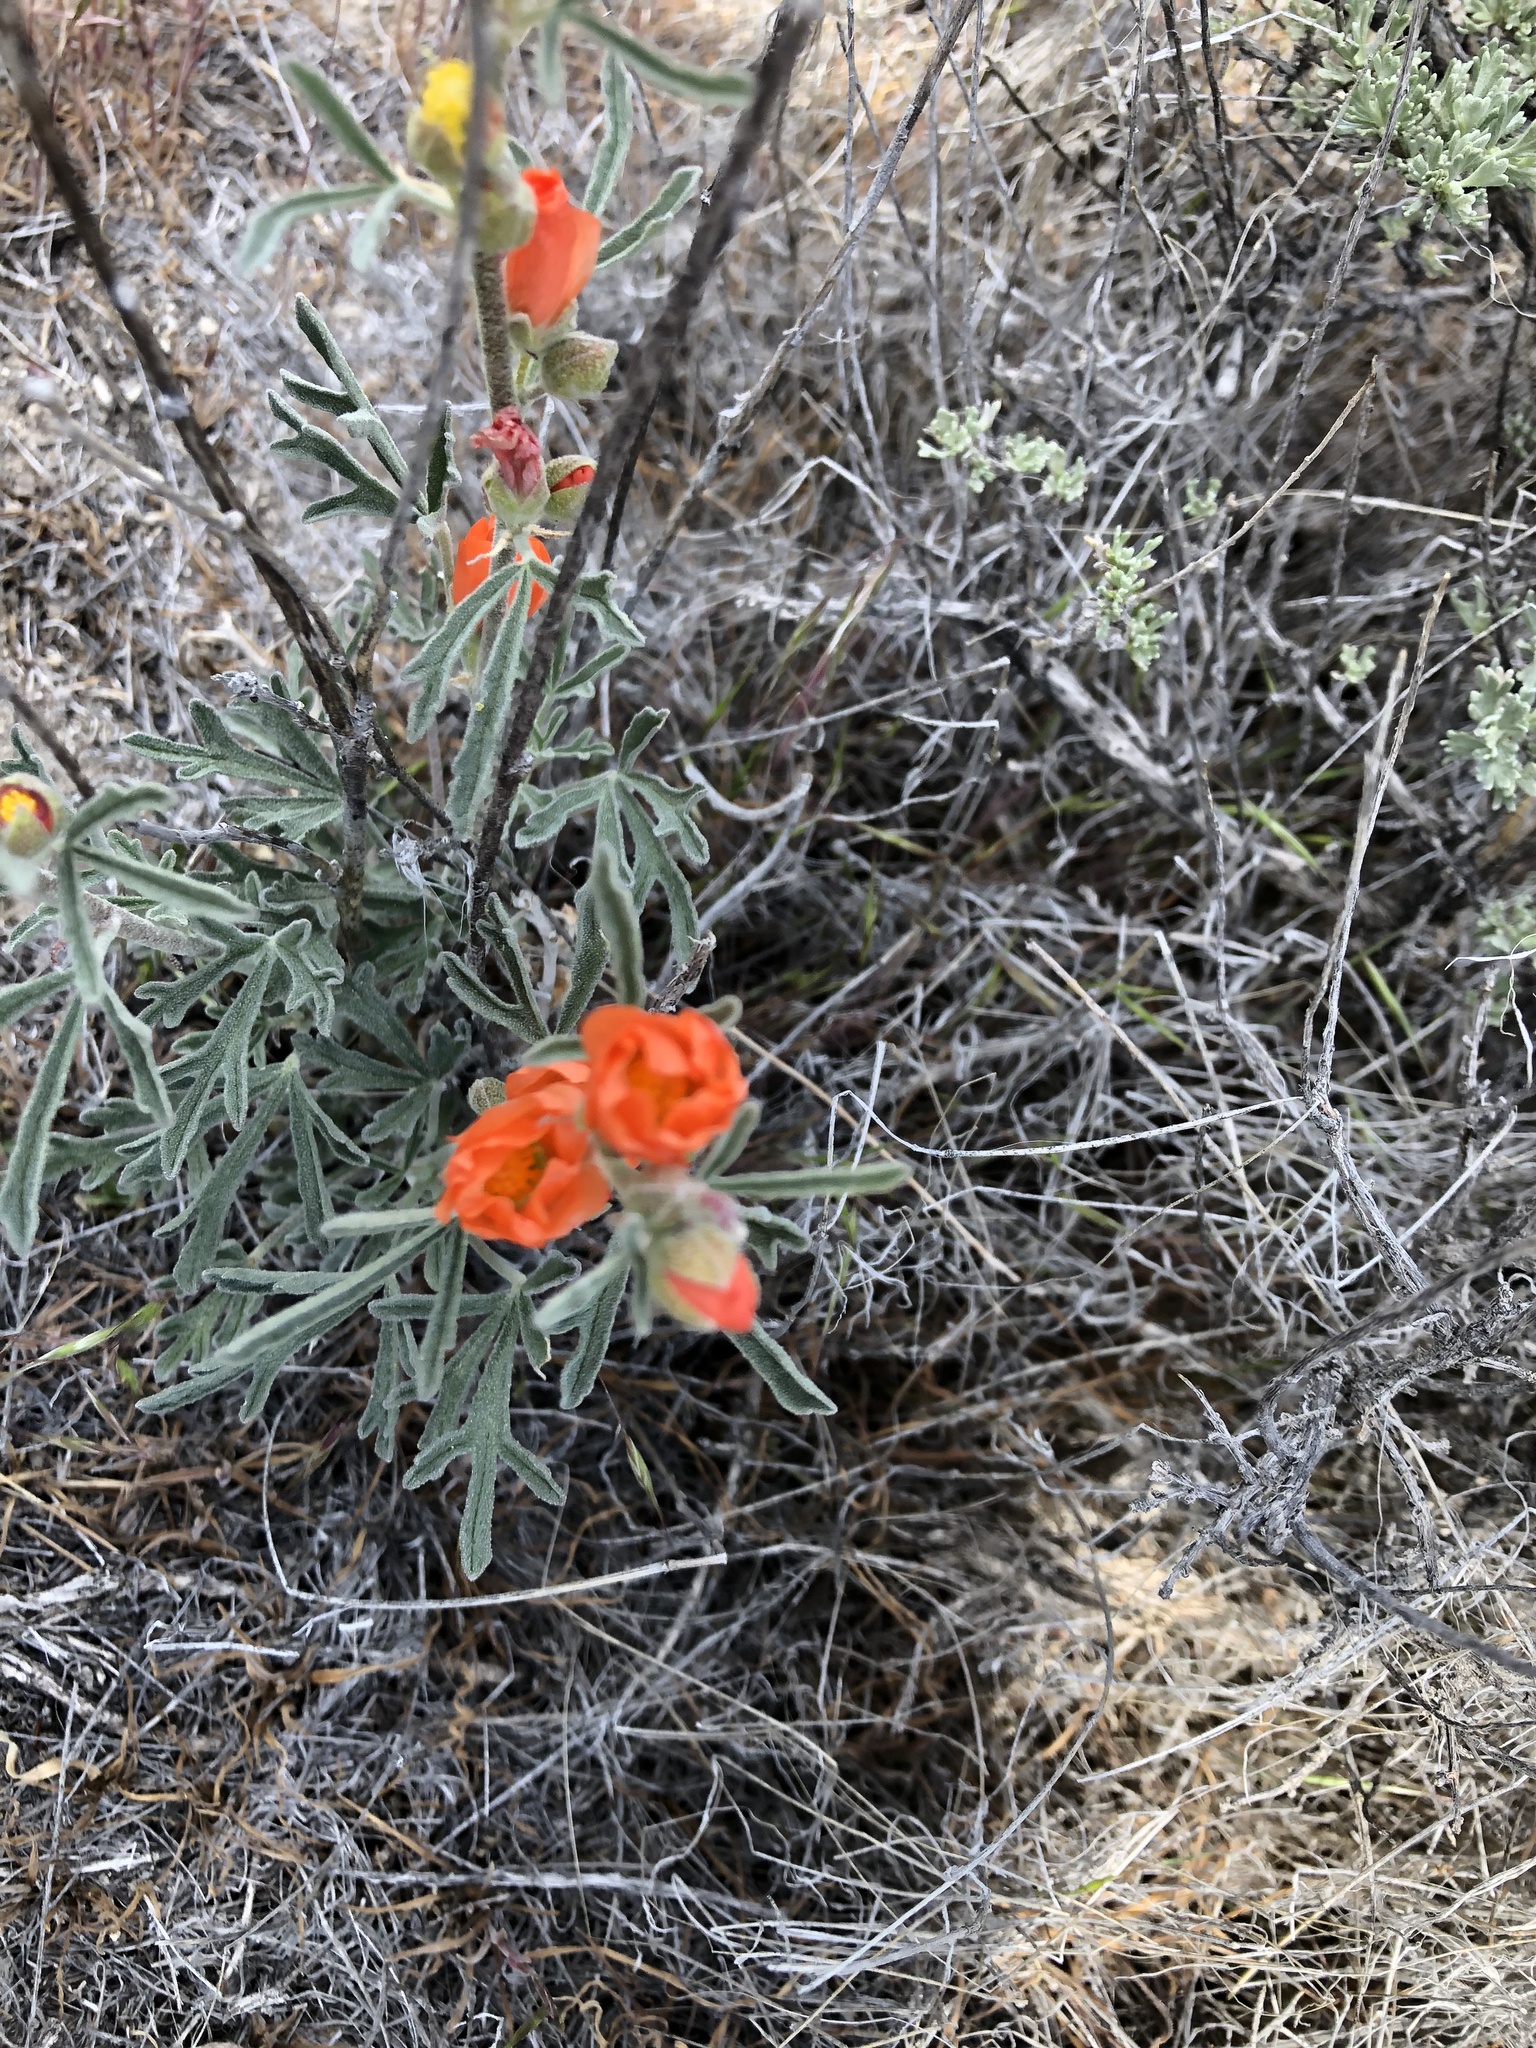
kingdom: Plantae
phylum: Tracheophyta
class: Magnoliopsida
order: Malvales
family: Malvaceae
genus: Sphaeralcea
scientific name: Sphaeralcea coccinea
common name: Moss-rose
